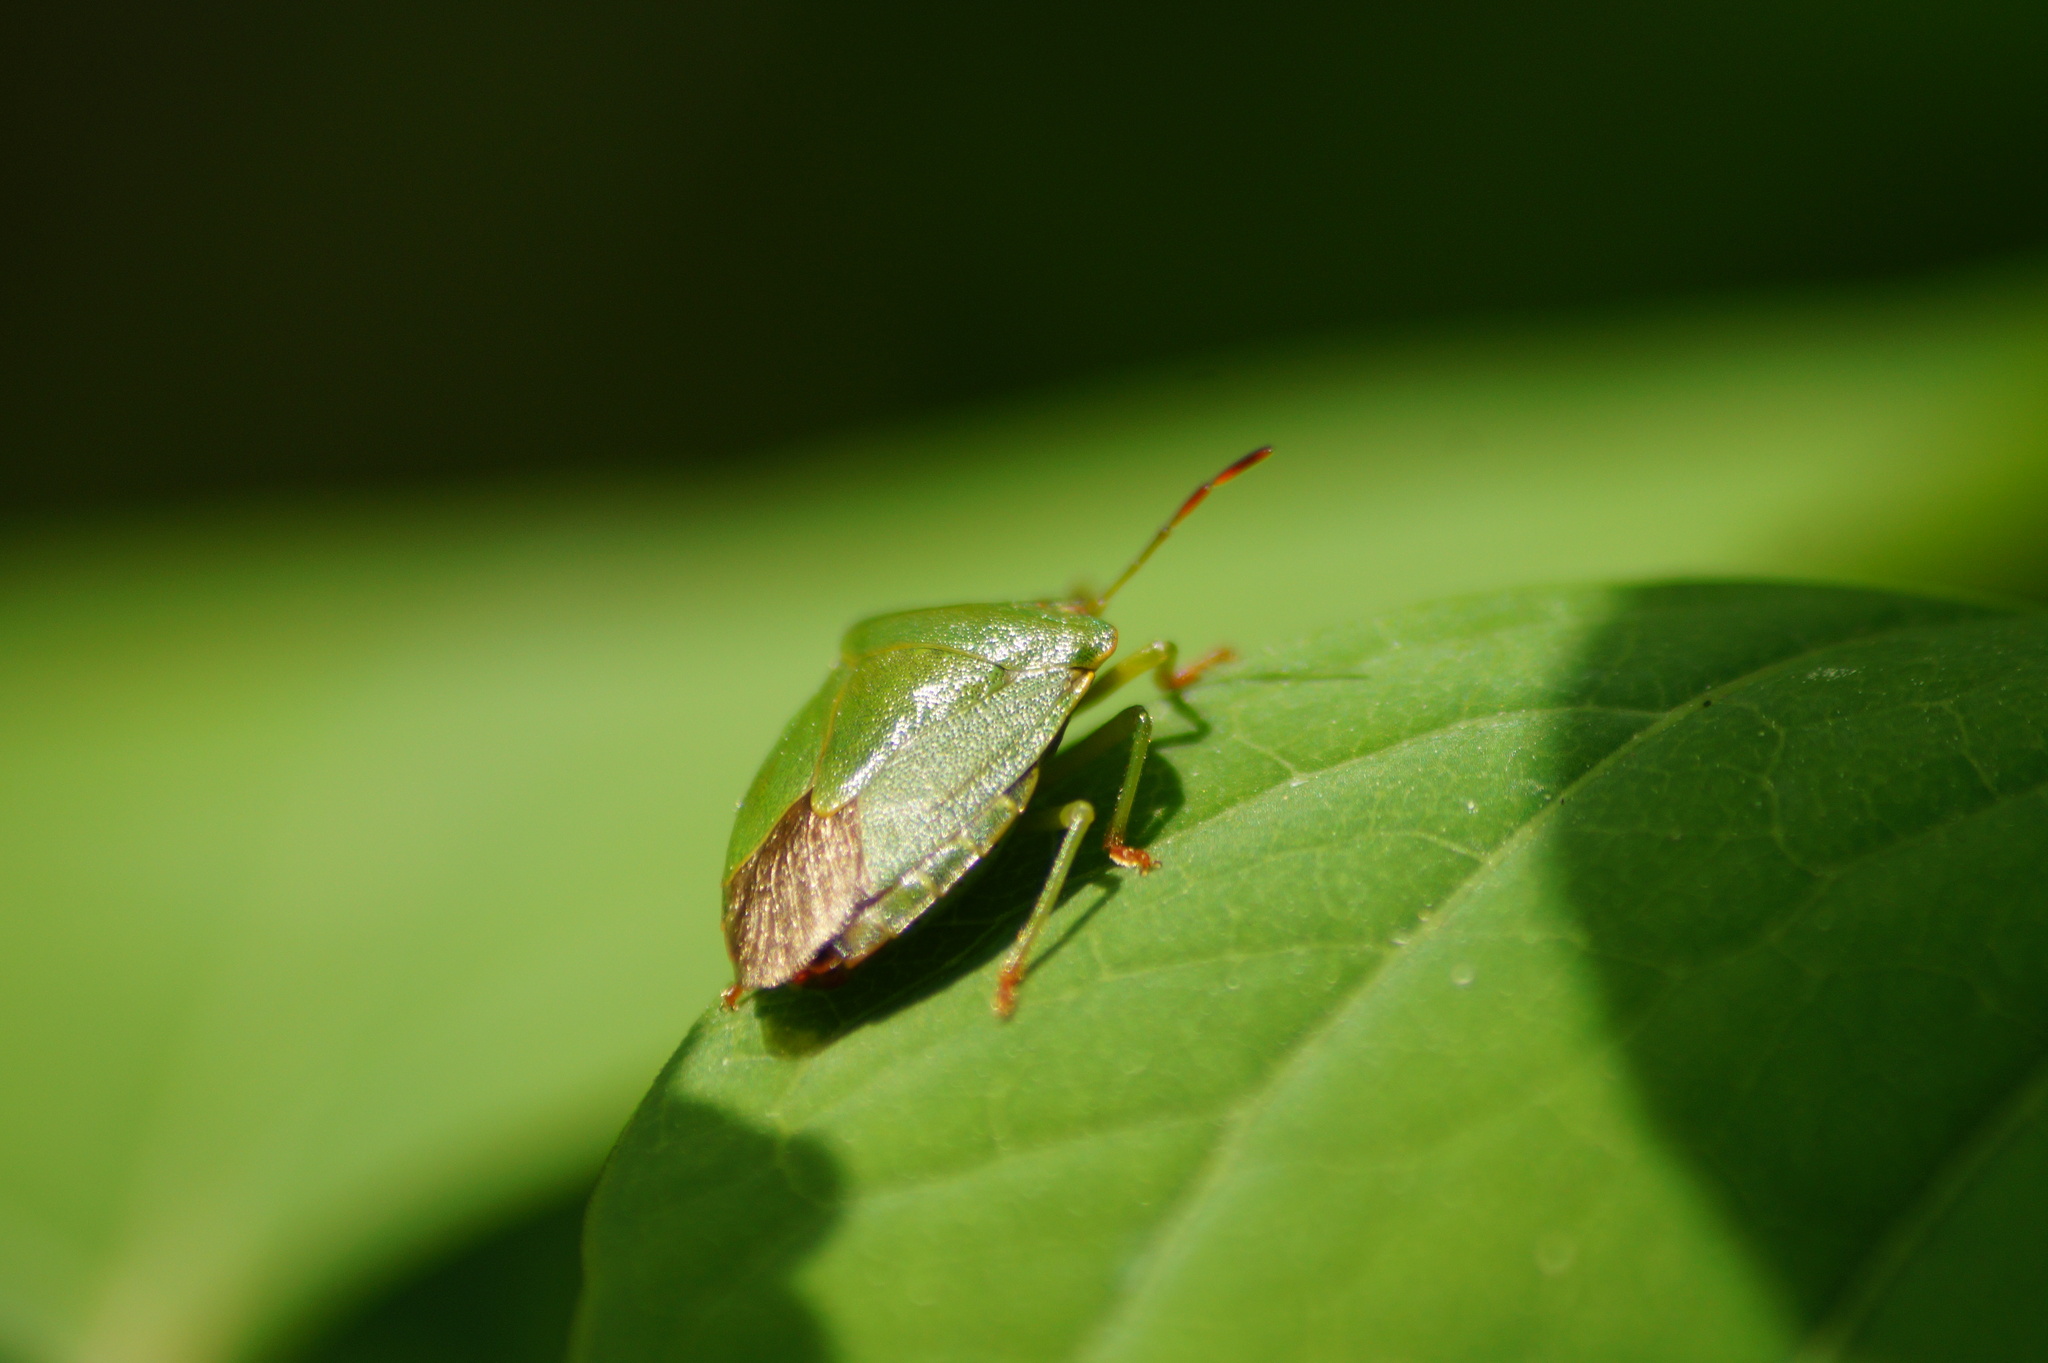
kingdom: Animalia
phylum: Arthropoda
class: Insecta
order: Hemiptera
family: Pentatomidae
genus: Palomena
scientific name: Palomena prasina
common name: Green shieldbug
